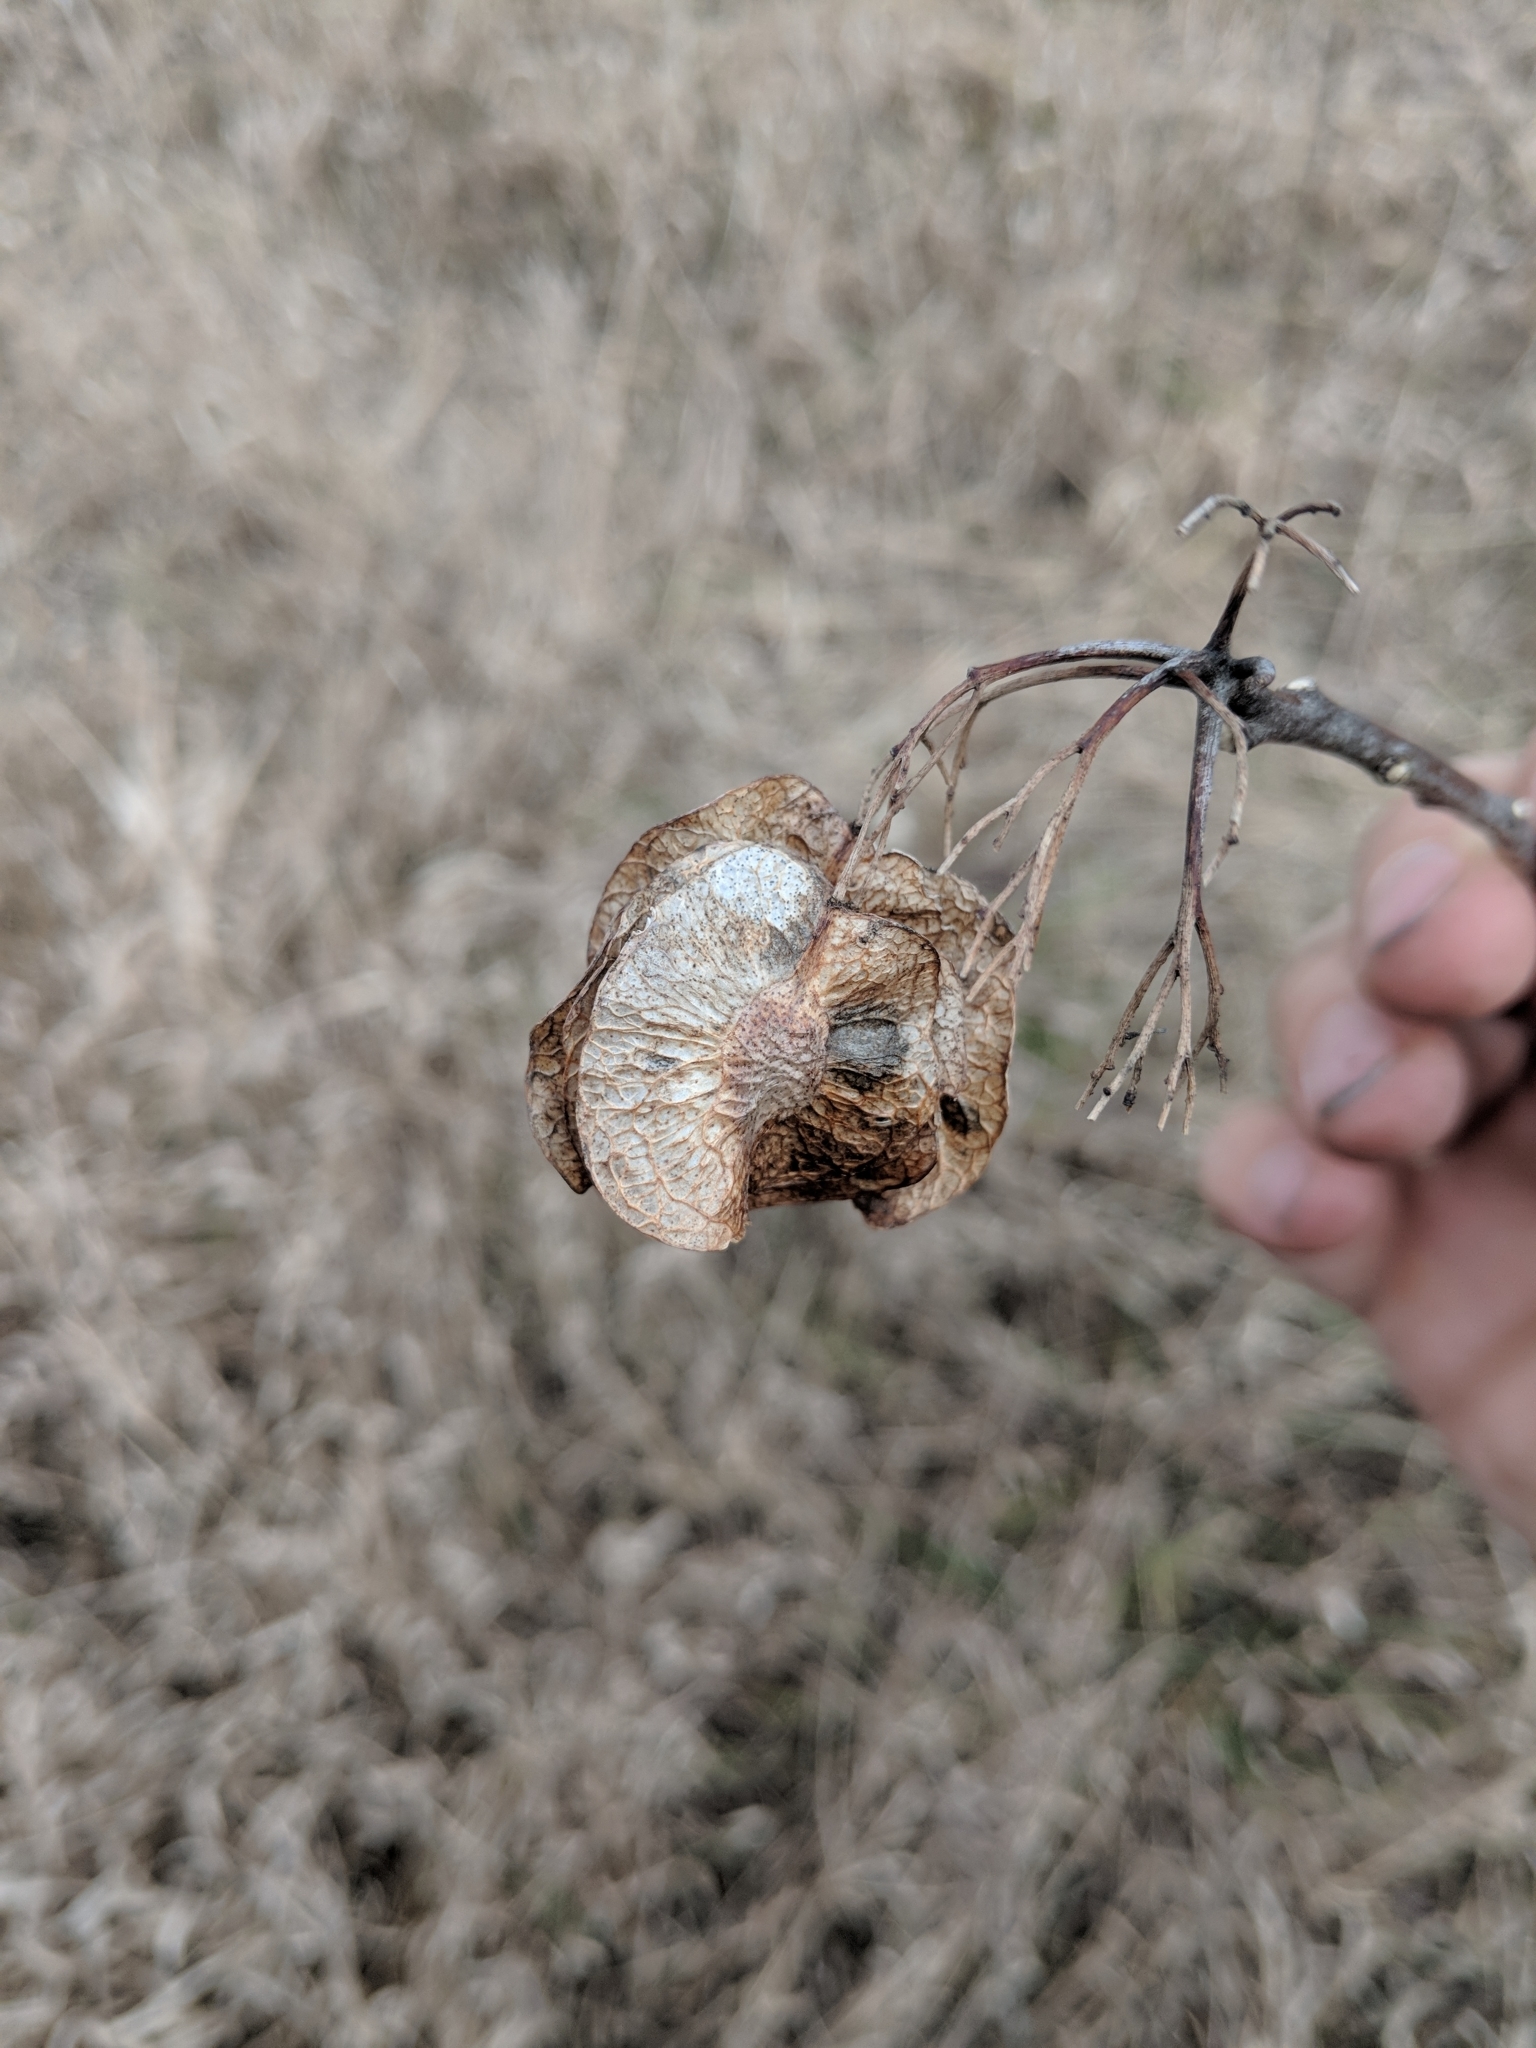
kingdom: Plantae
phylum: Tracheophyta
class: Magnoliopsida
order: Sapindales
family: Rutaceae
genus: Ptelea
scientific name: Ptelea trifoliata
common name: Common hop-tree
